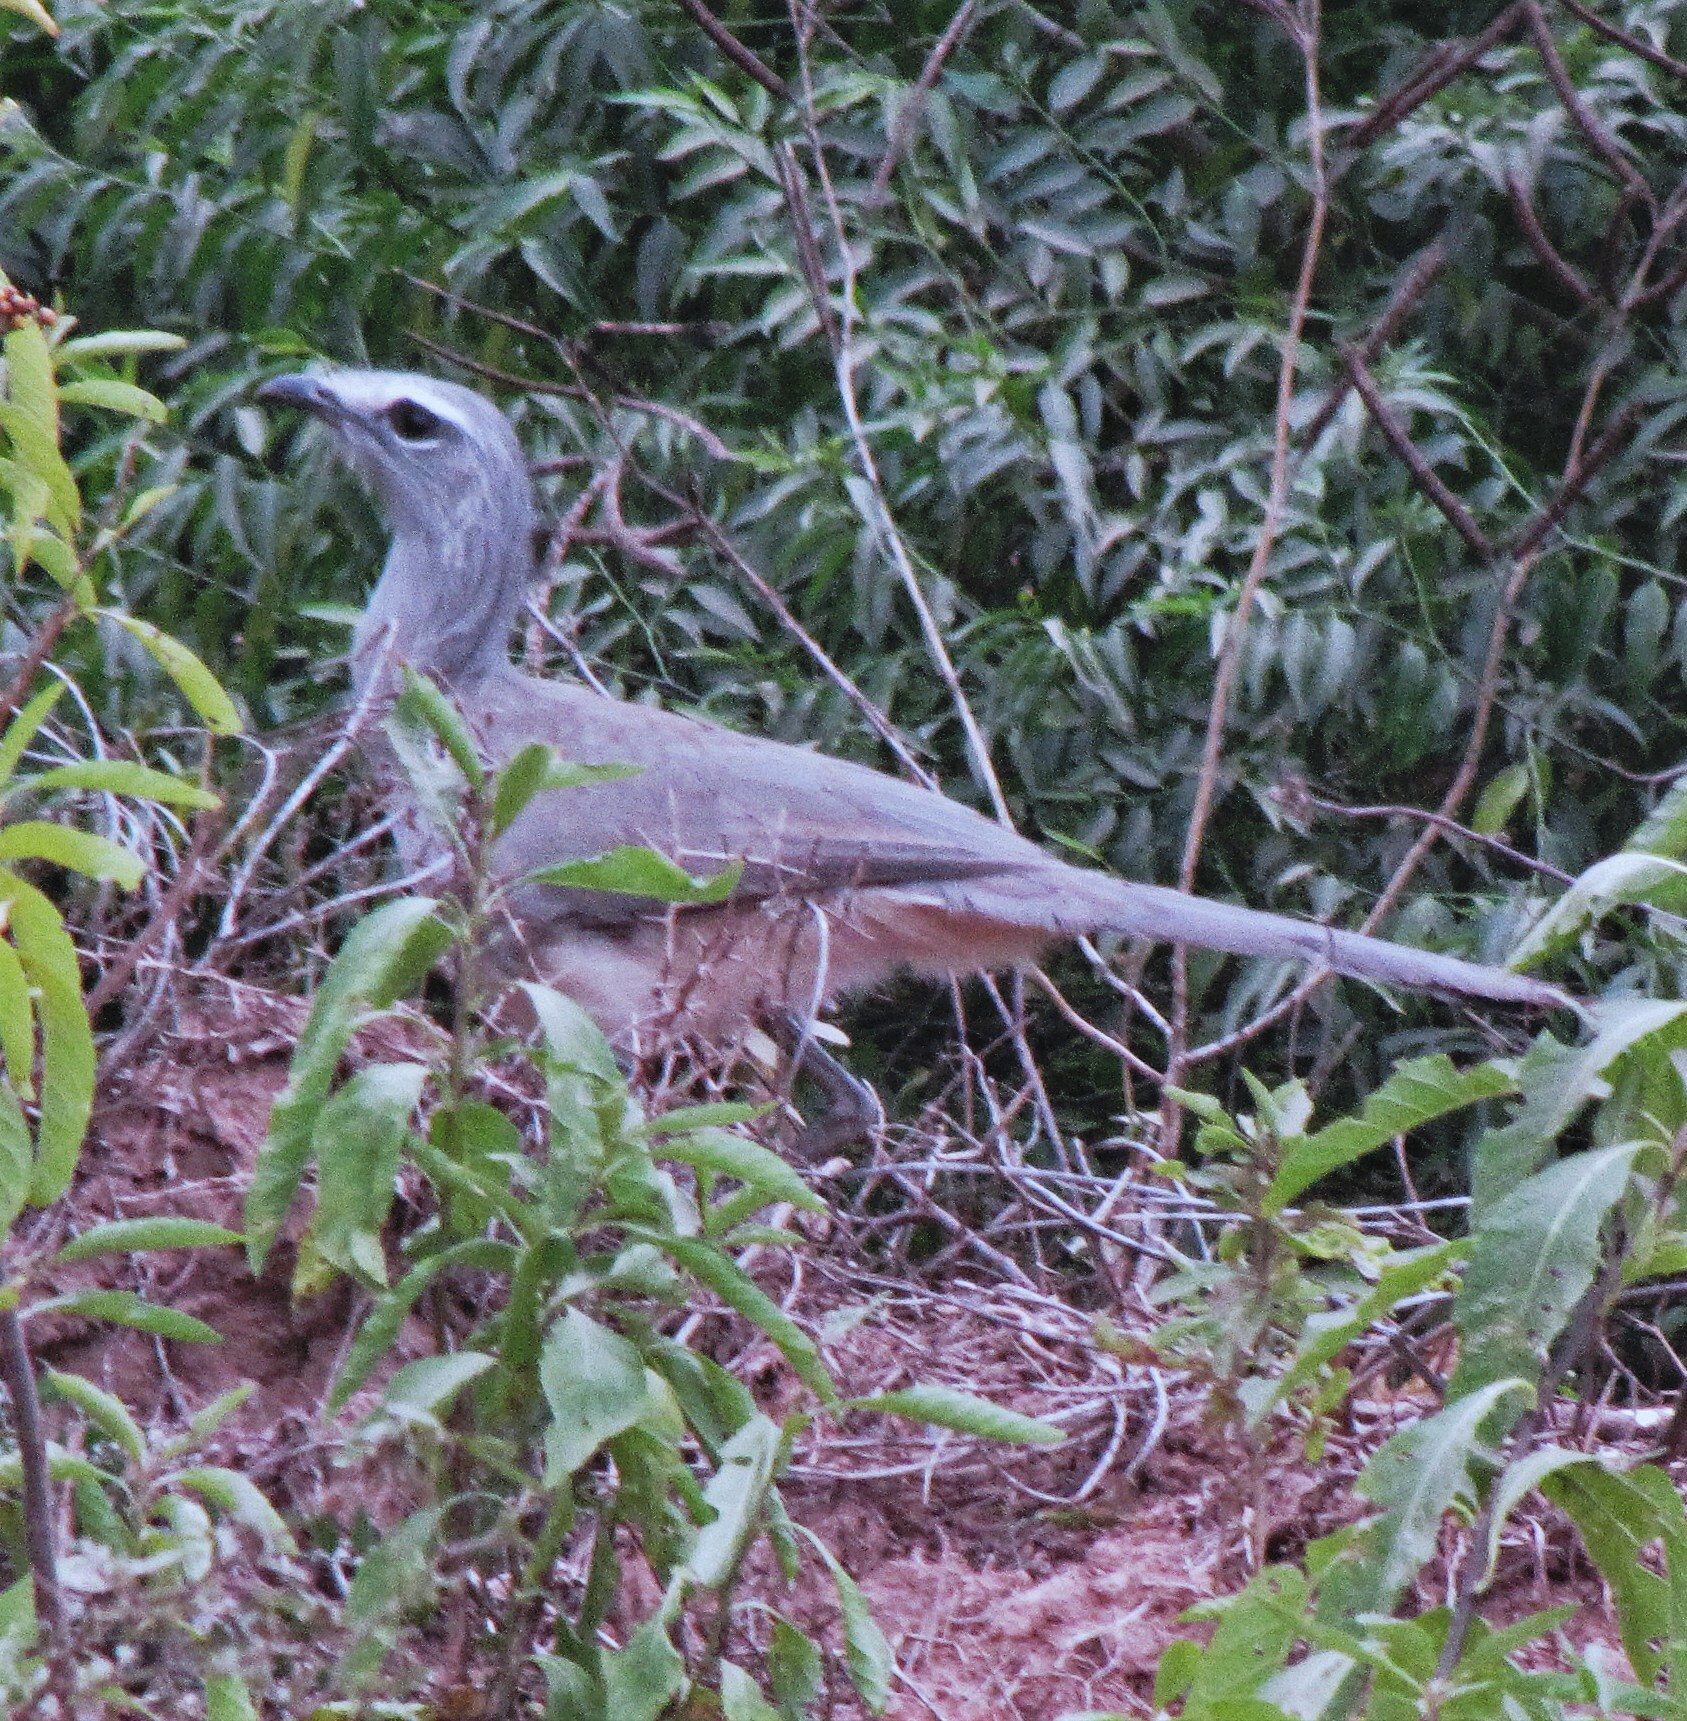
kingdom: Animalia
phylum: Chordata
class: Aves
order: Cariamiformes
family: Cariamidae
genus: Chunga
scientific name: Chunga burmeisteri
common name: Black-legged seriema
